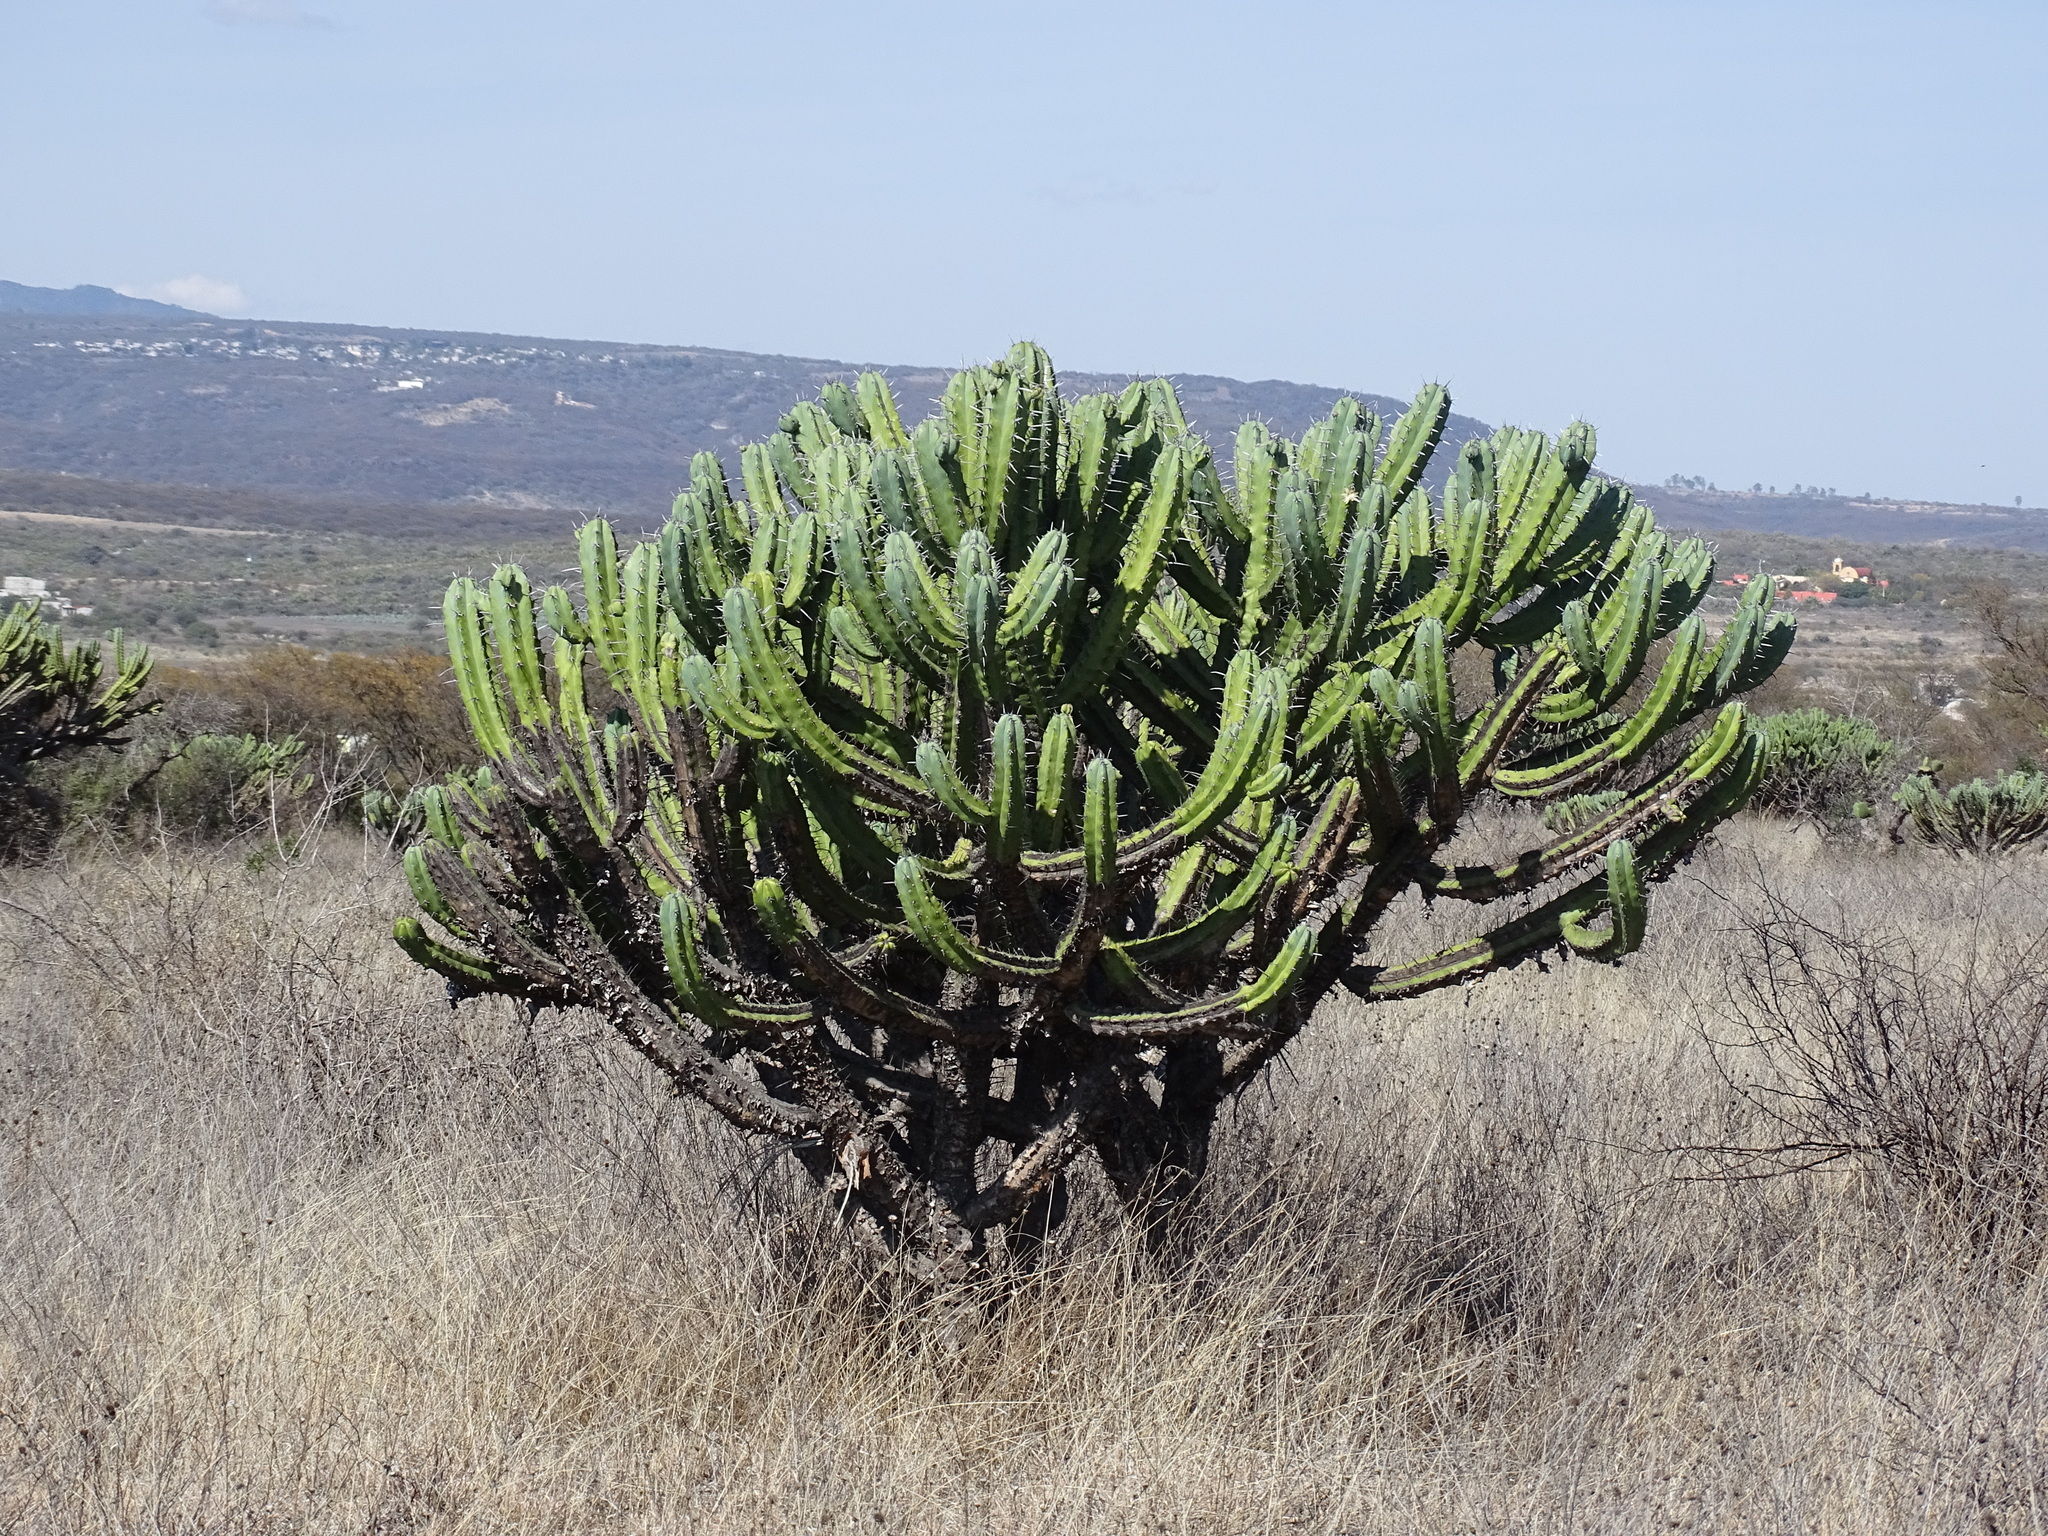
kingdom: Plantae
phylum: Tracheophyta
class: Magnoliopsida
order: Caryophyllales
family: Cactaceae
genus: Myrtillocactus
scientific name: Myrtillocactus geometrizans
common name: Bilberry cactus
